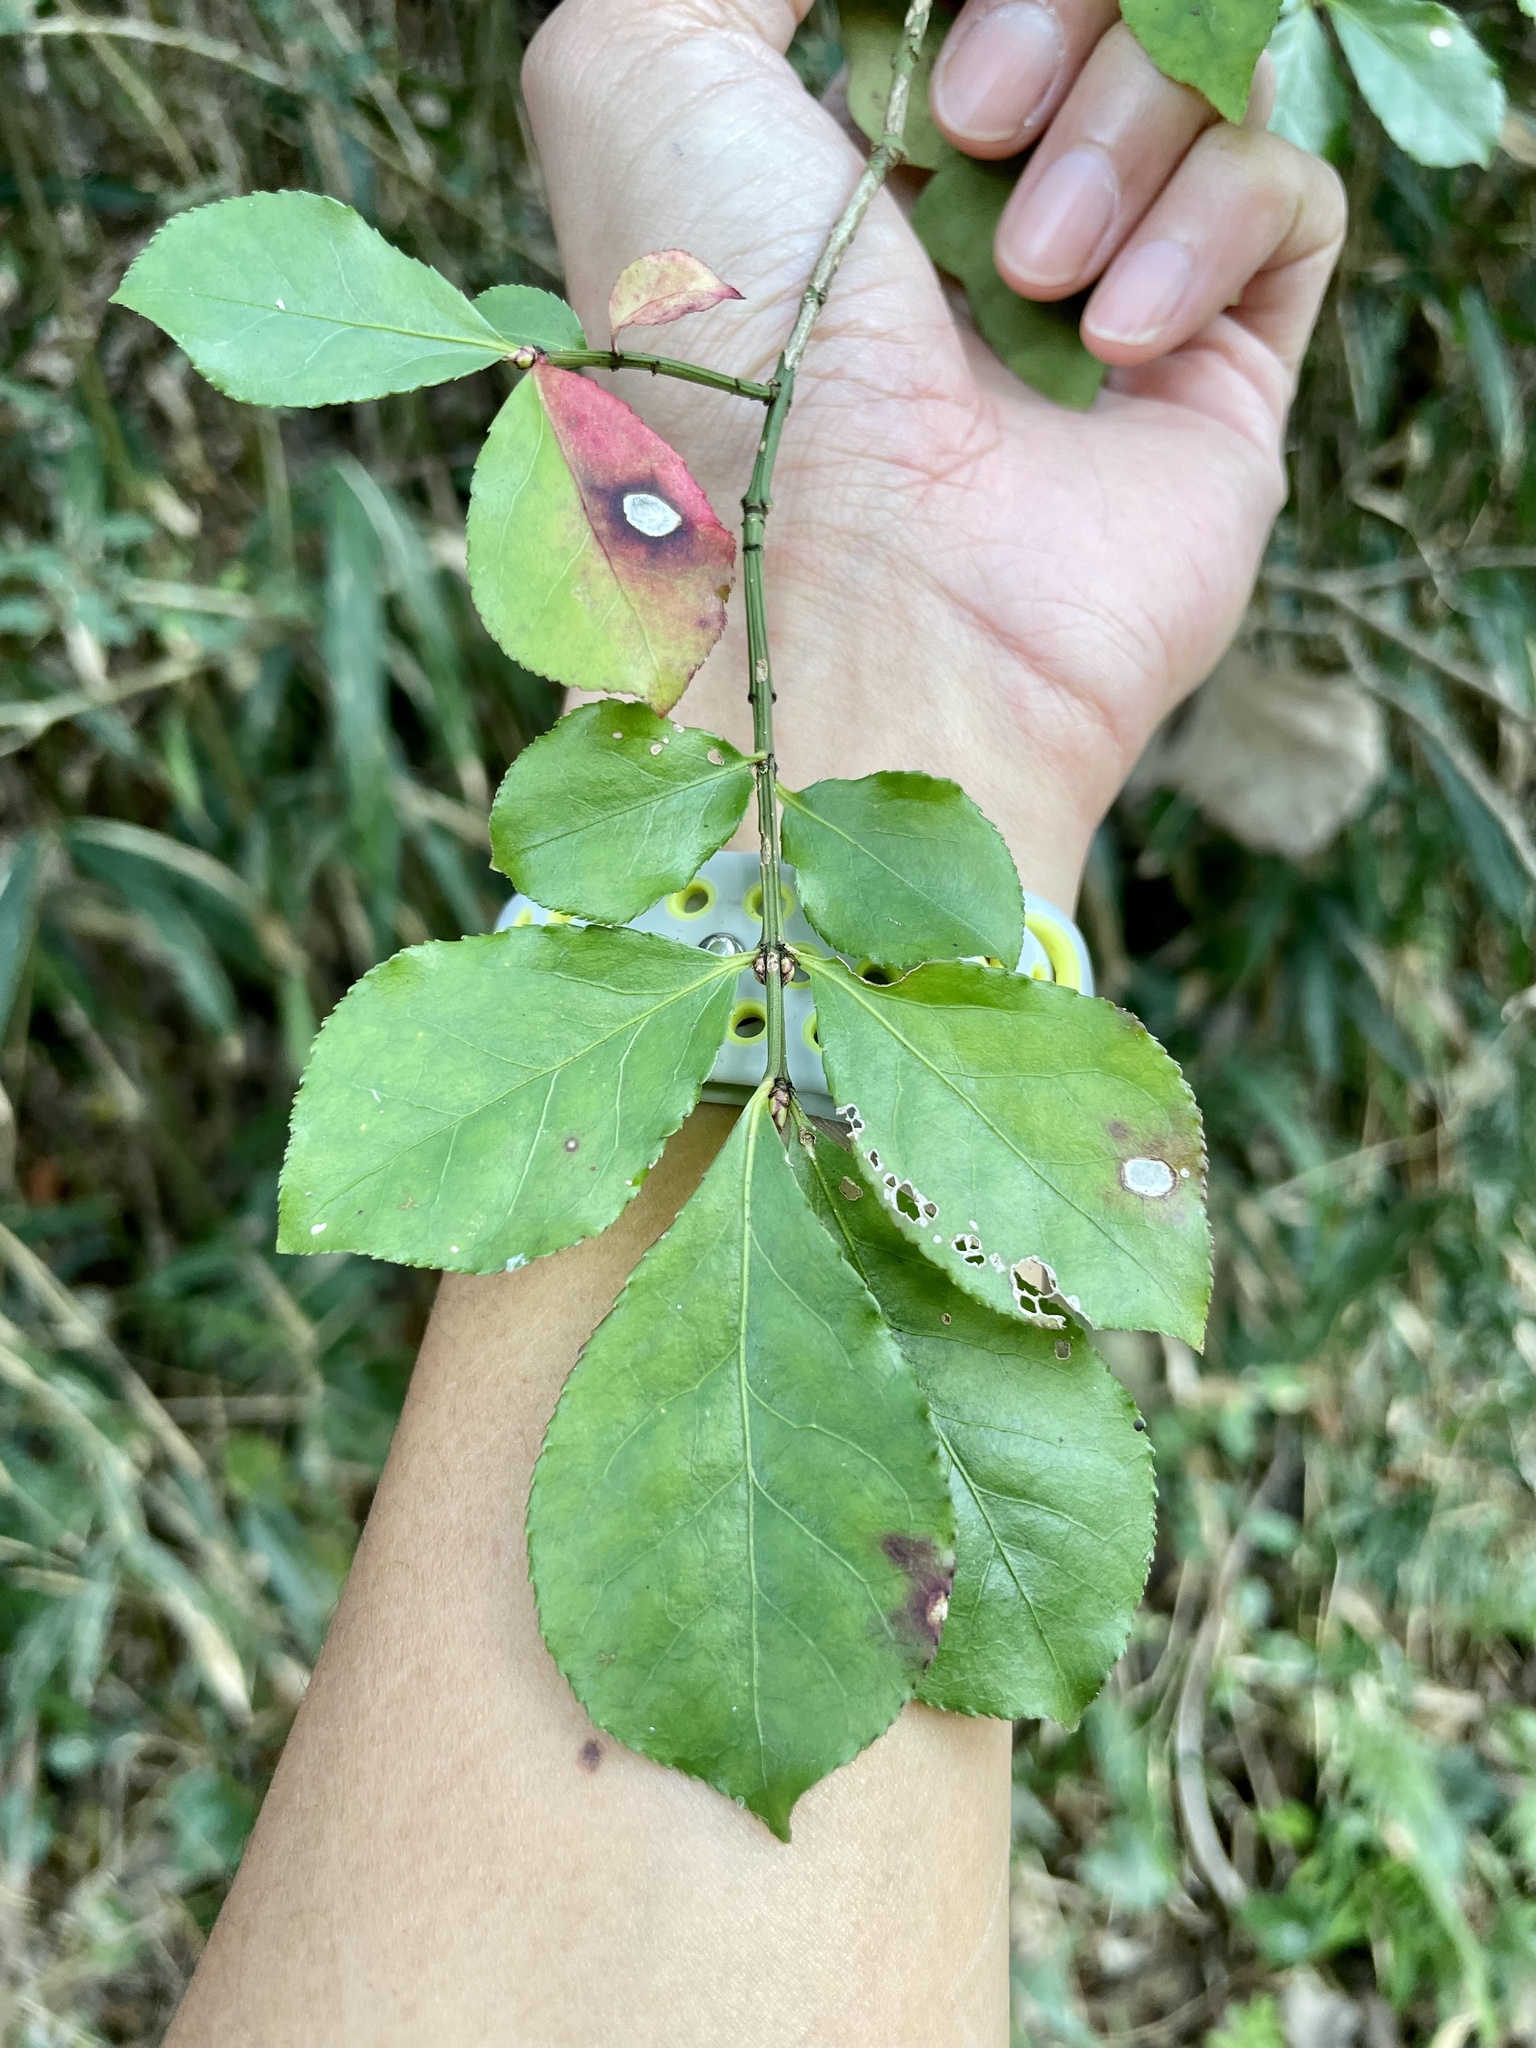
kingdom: Plantae
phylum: Tracheophyta
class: Magnoliopsida
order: Celastrales
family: Celastraceae
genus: Euonymus
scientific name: Euonymus alatus
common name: Winged euonymus
